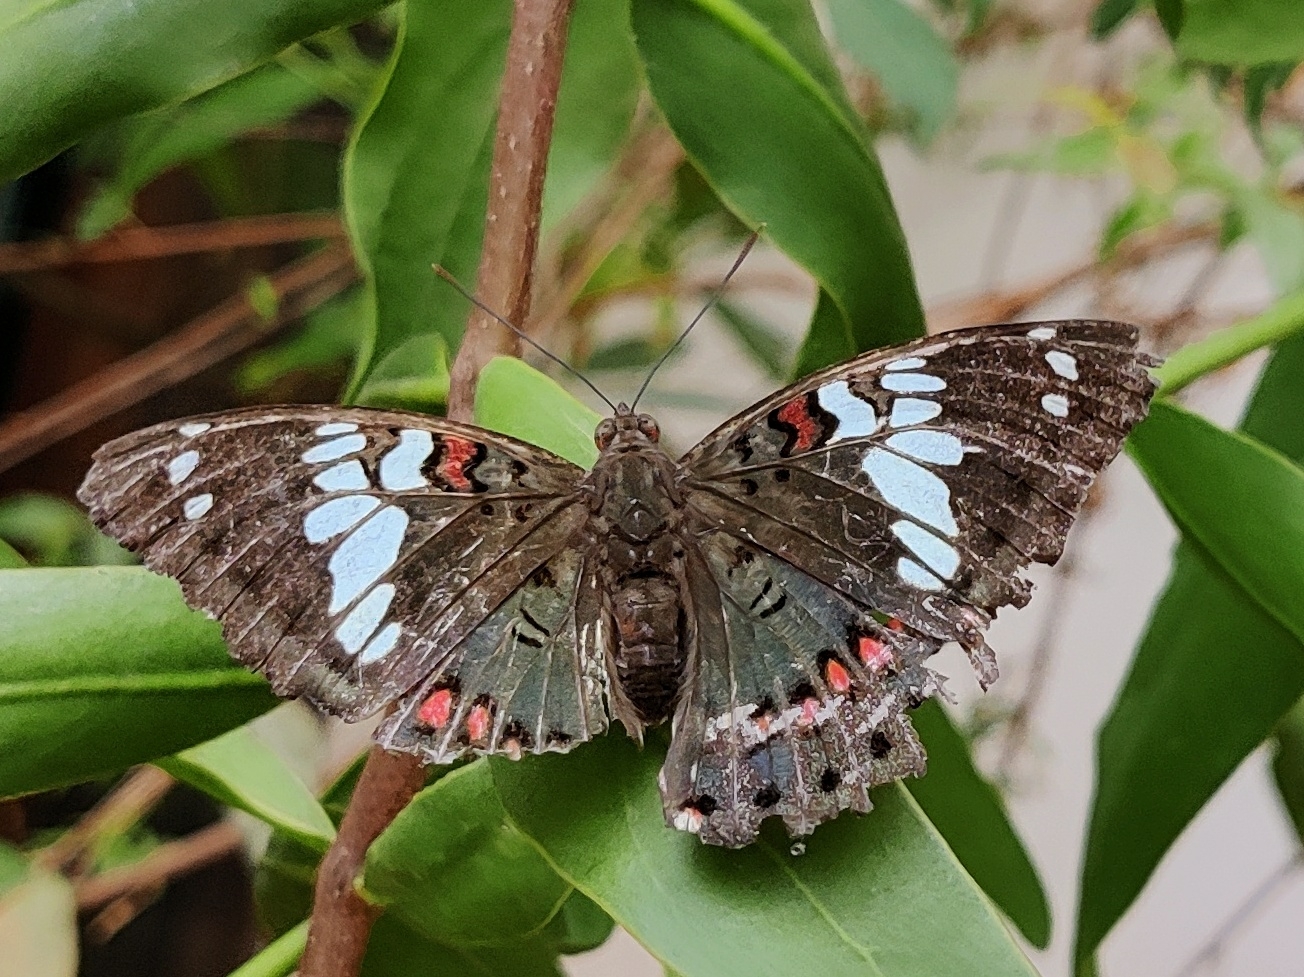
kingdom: Animalia
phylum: Arthropoda
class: Insecta
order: Lepidoptera
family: Nymphalidae
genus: Euthalia
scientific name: Euthalia lubentina
